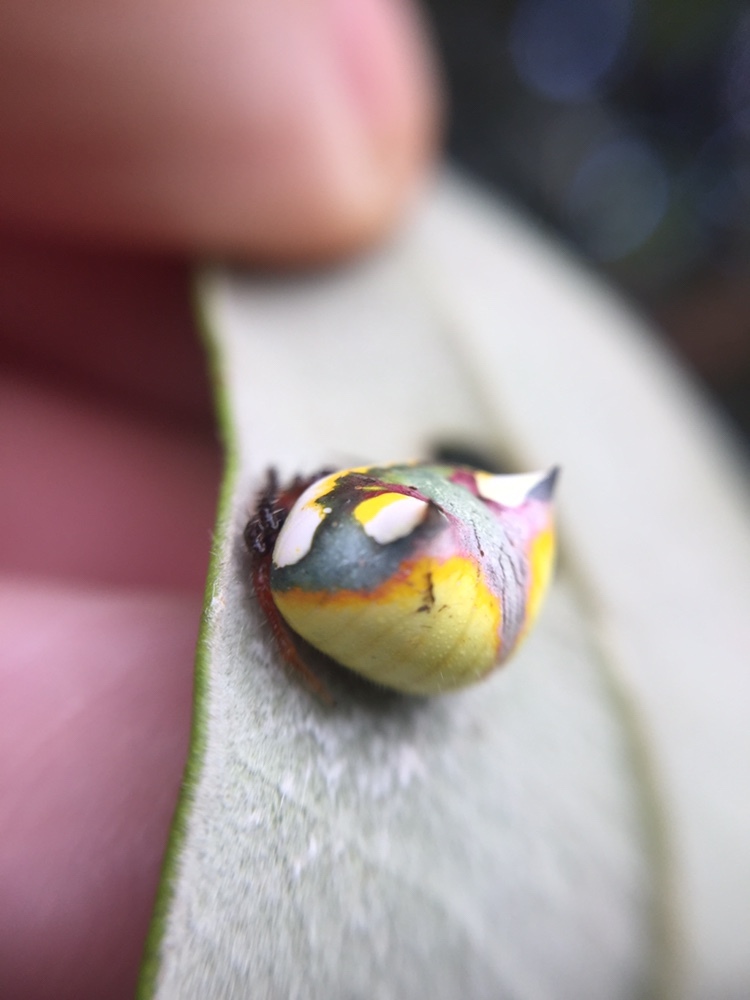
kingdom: Animalia
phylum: Arthropoda
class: Arachnida
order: Araneae
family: Araneidae
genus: Poecilopachys
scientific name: Poecilopachys australasia
